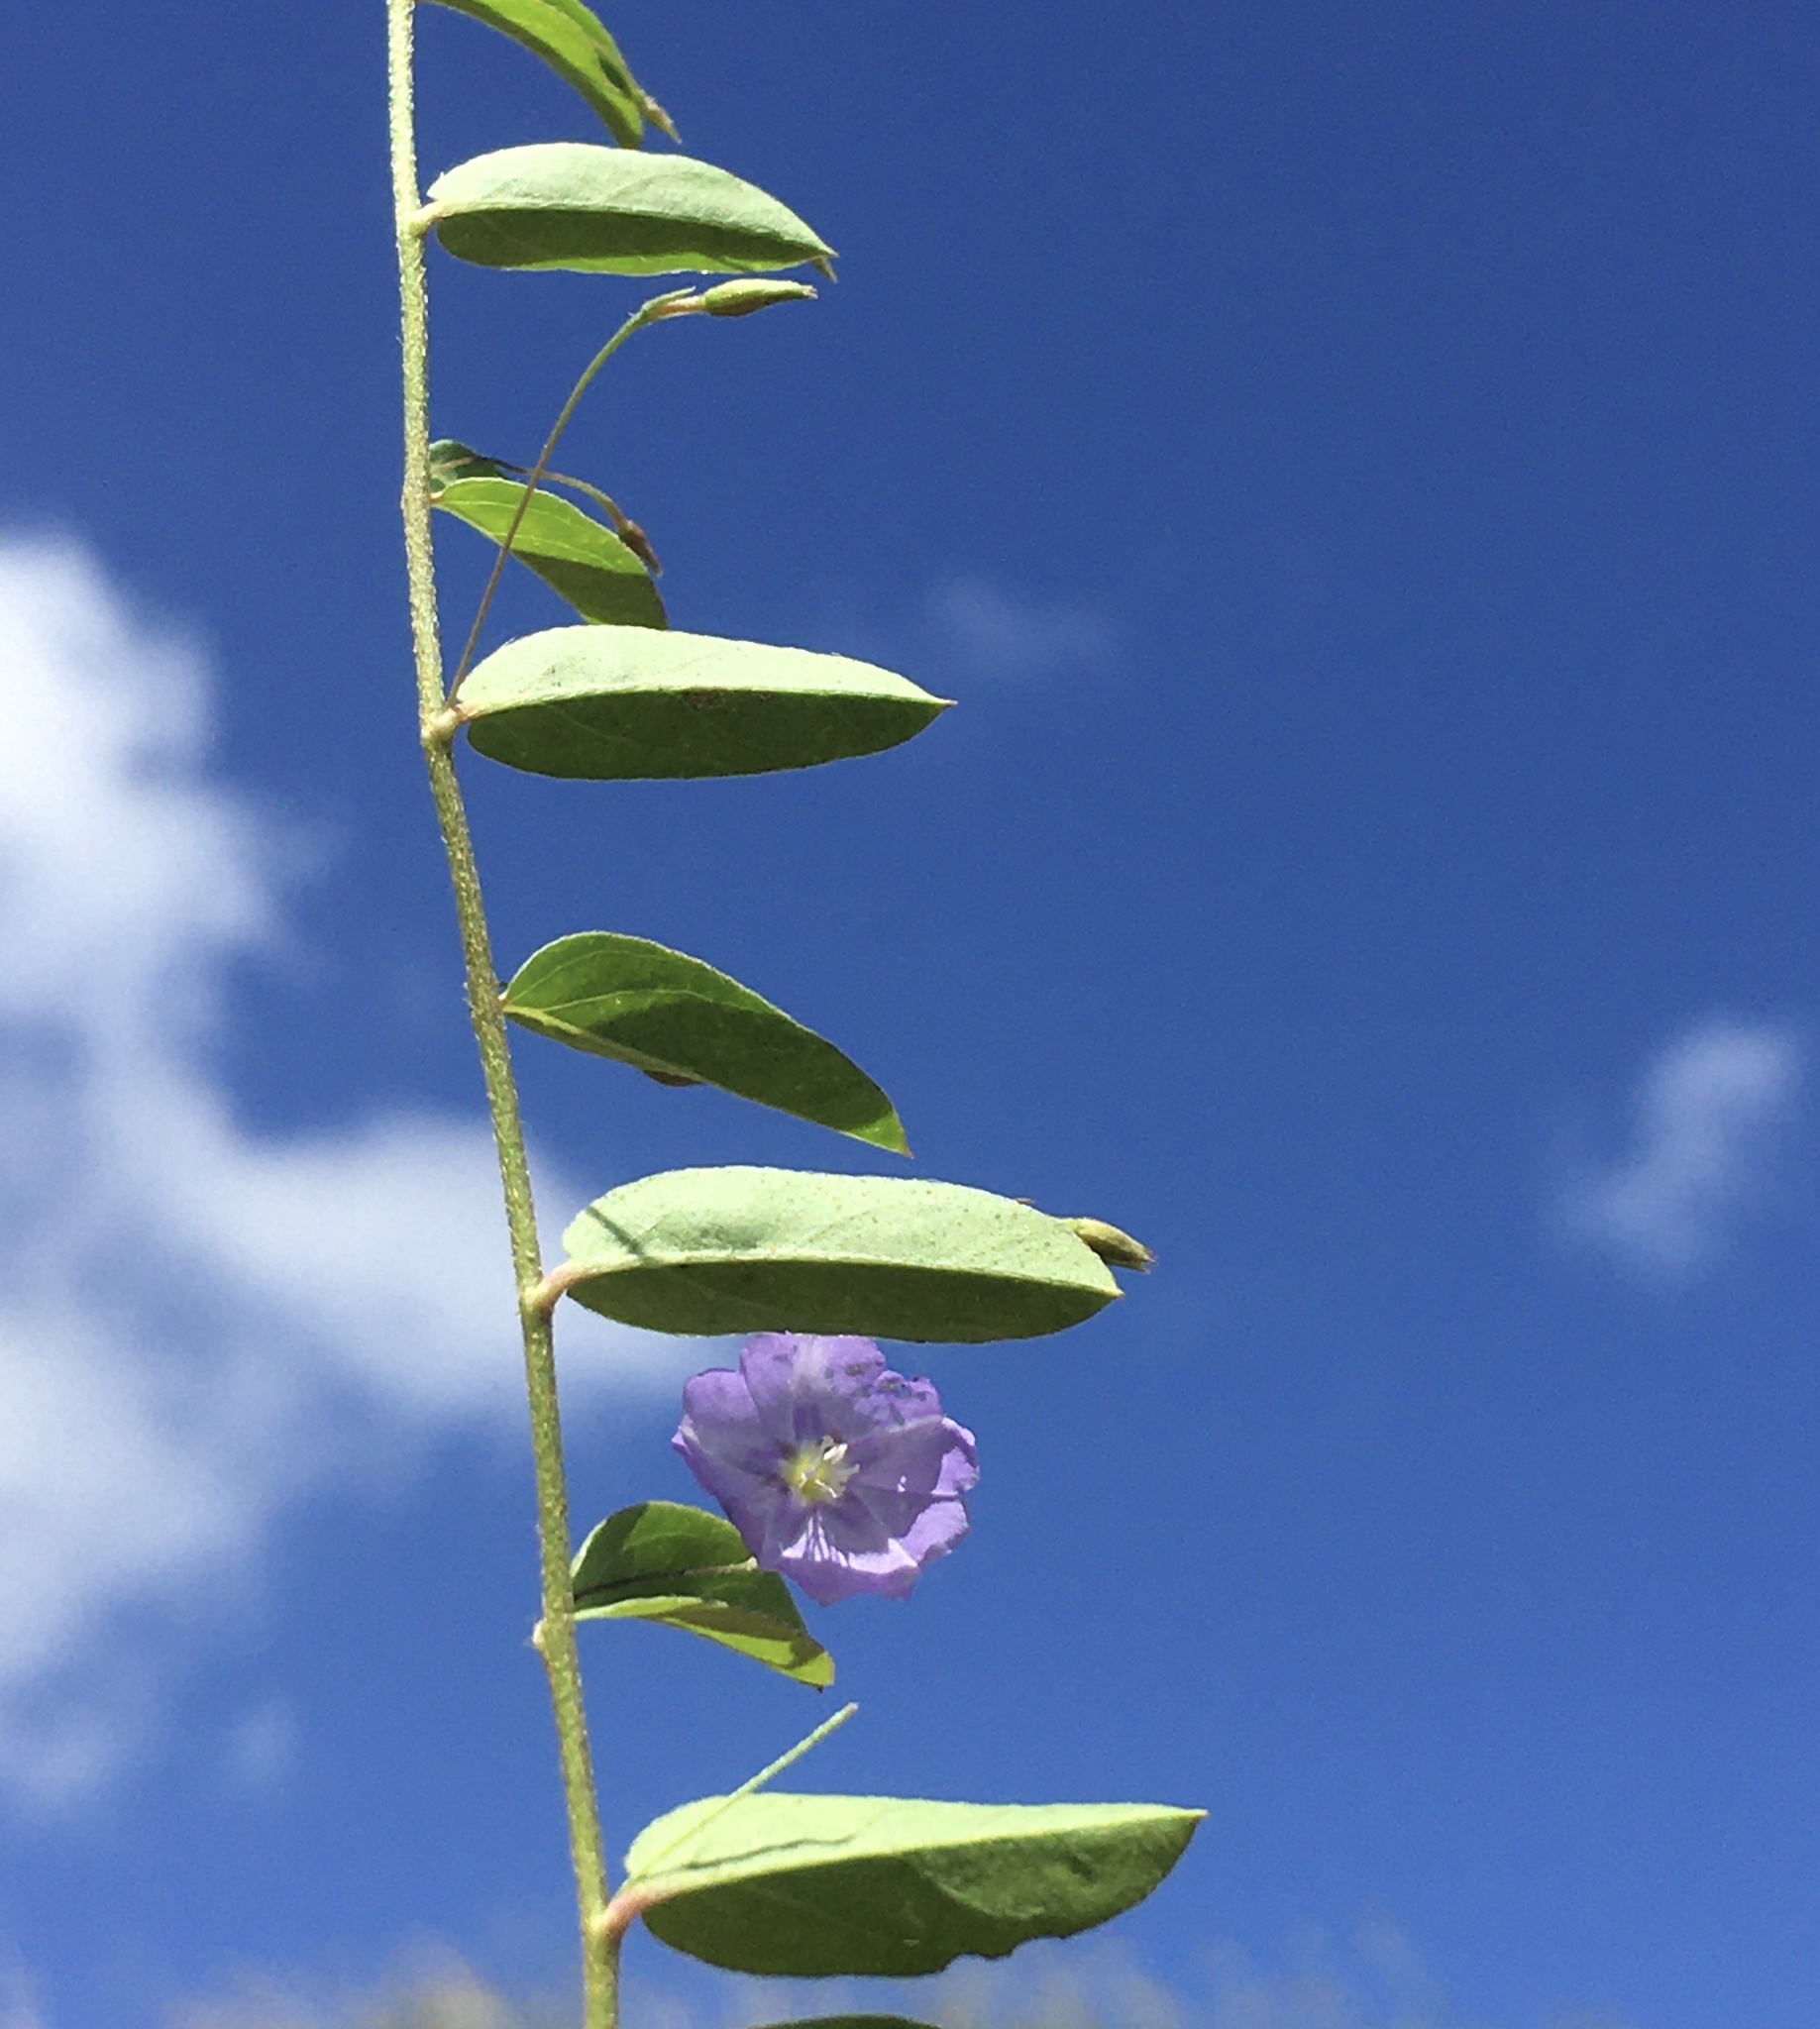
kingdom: Plantae
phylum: Tracheophyta
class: Magnoliopsida
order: Solanales
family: Convolvulaceae
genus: Evolvulus
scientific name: Evolvulus alsinoides
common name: Slender dwarf morning-glory
